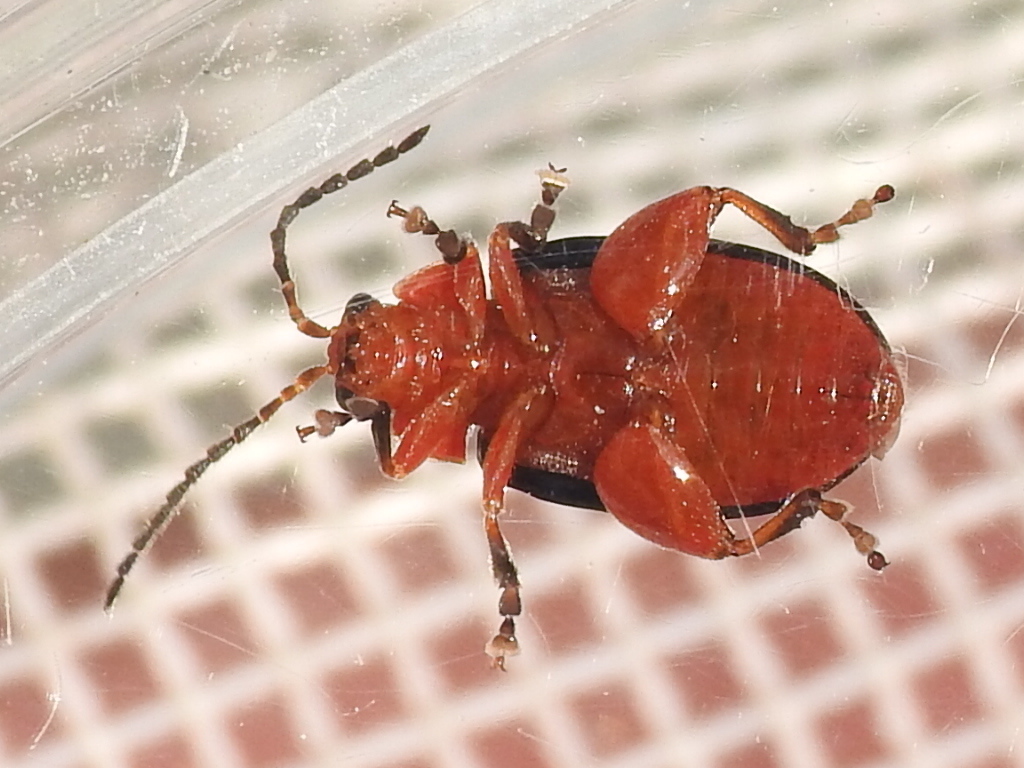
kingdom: Animalia
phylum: Arthropoda
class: Insecta
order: Coleoptera
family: Chrysomelidae
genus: Kuschelina
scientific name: Kuschelina gibbitarsa
